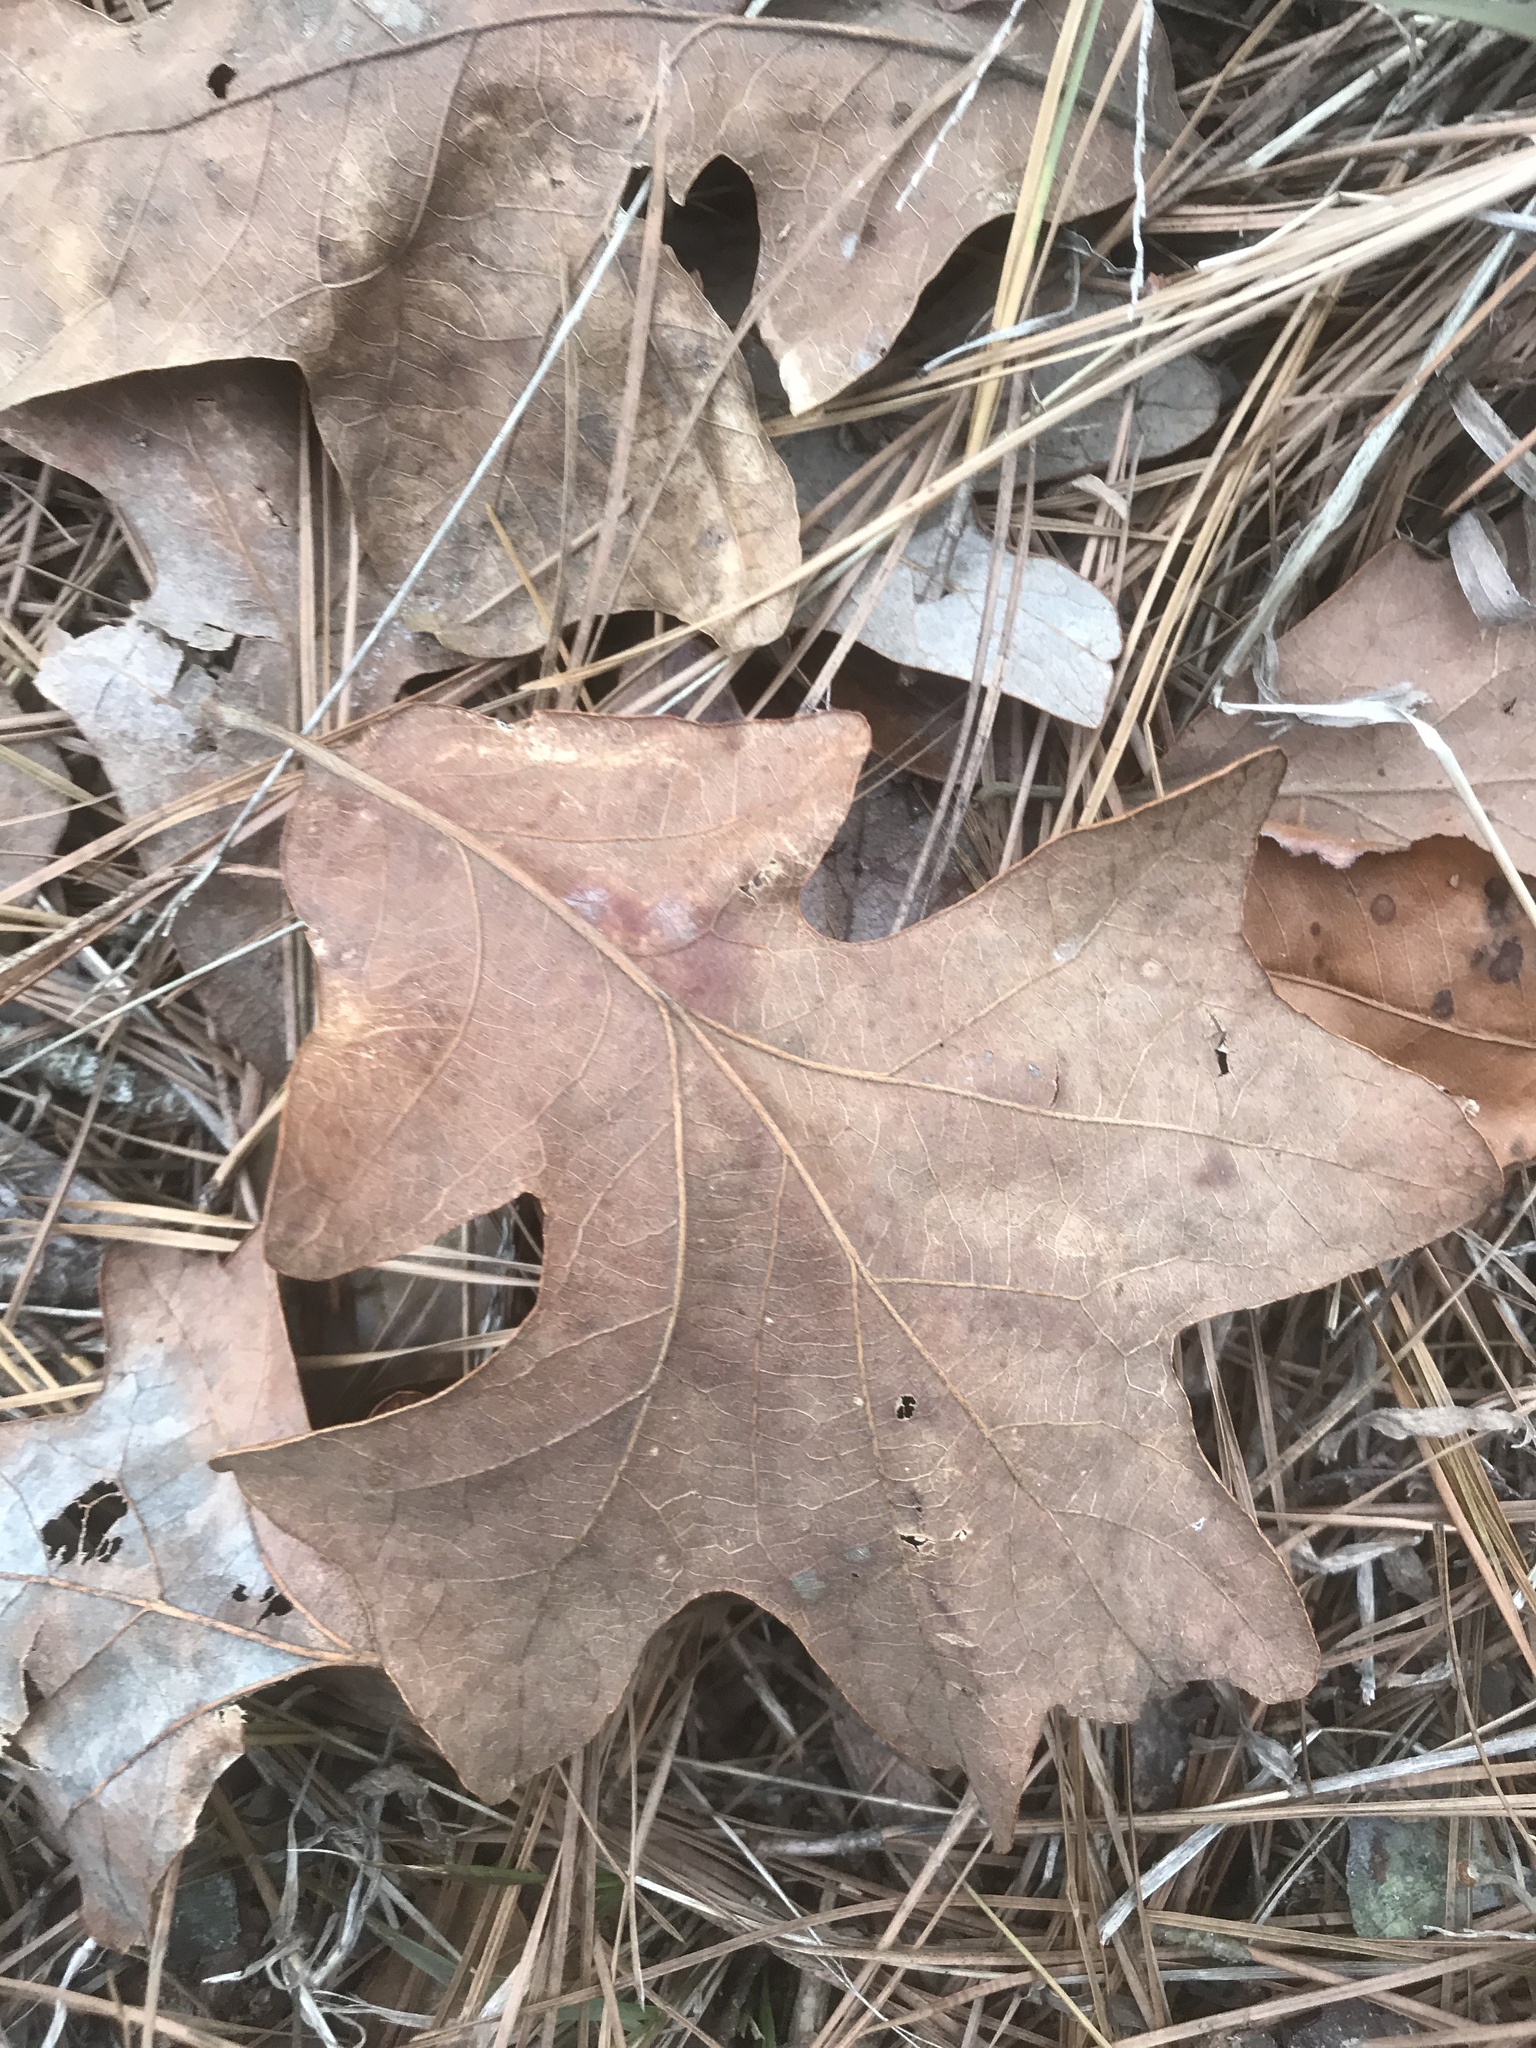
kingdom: Plantae
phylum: Tracheophyta
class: Magnoliopsida
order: Fagales
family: Fagaceae
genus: Quercus
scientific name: Quercus stellata
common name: Post oak
